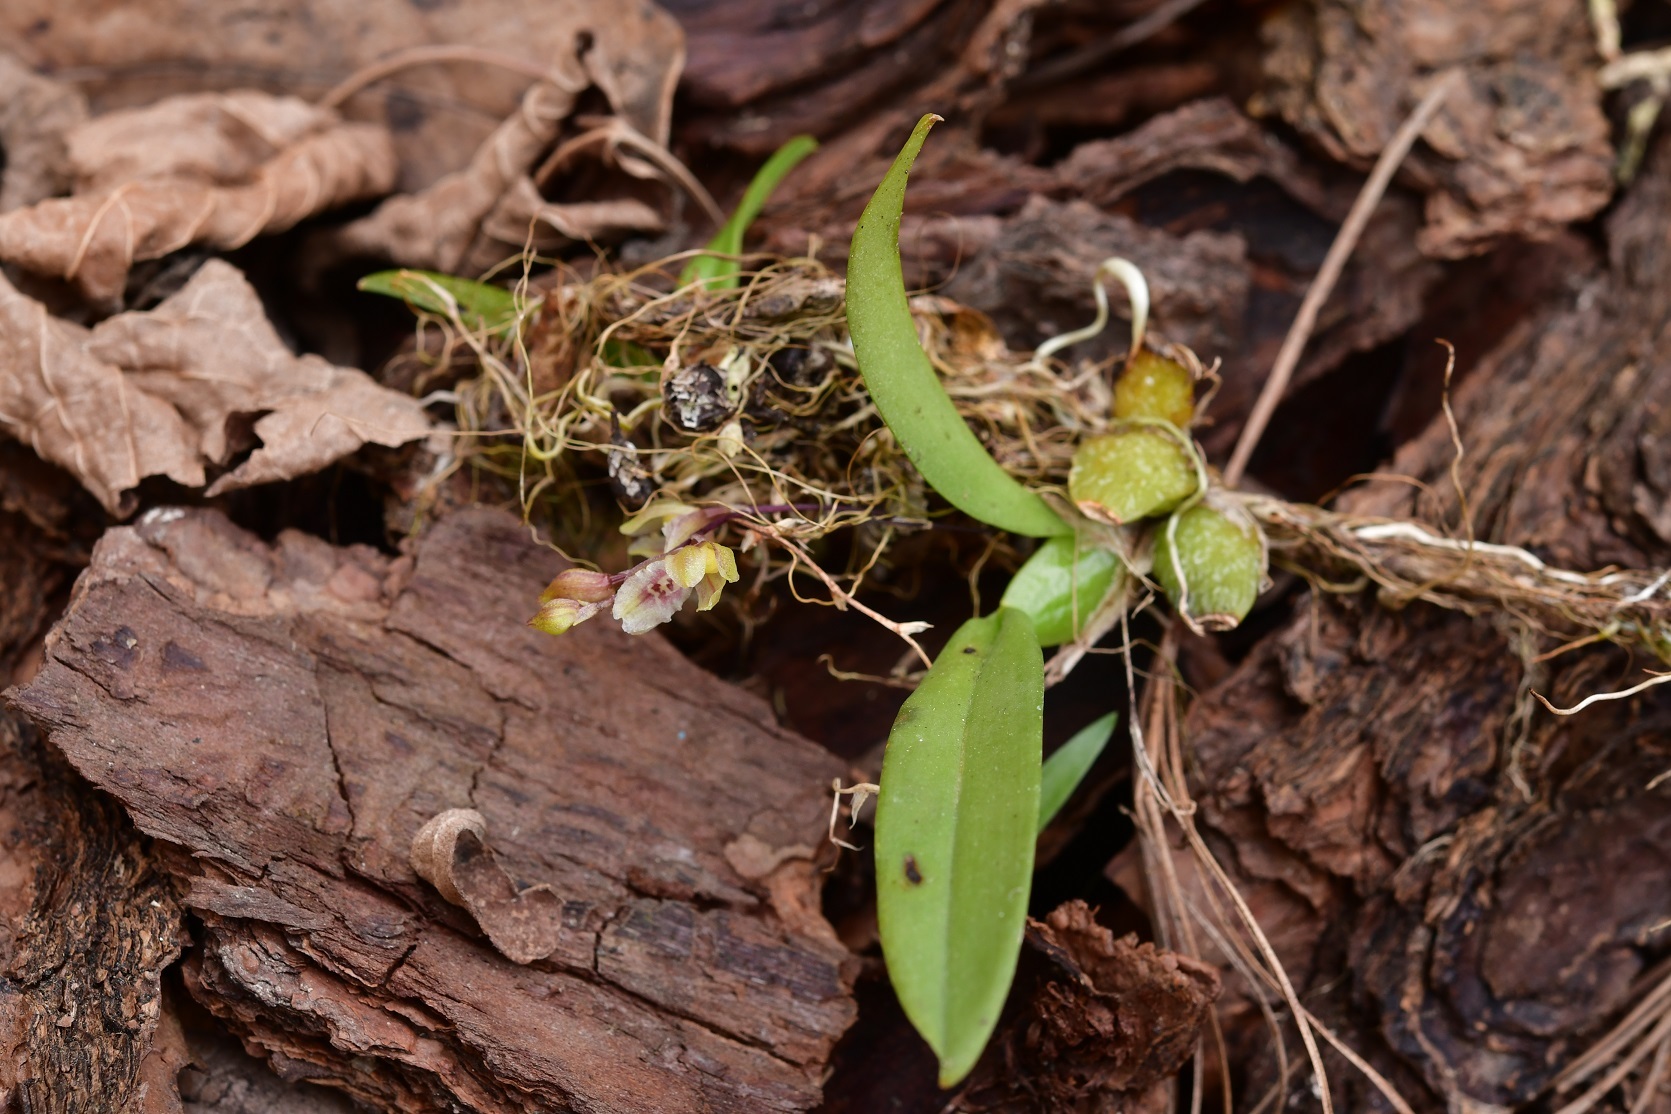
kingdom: Plantae
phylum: Tracheophyta
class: Liliopsida
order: Asparagales
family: Orchidaceae
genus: Leochilus
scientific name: Leochilus oncidioides
